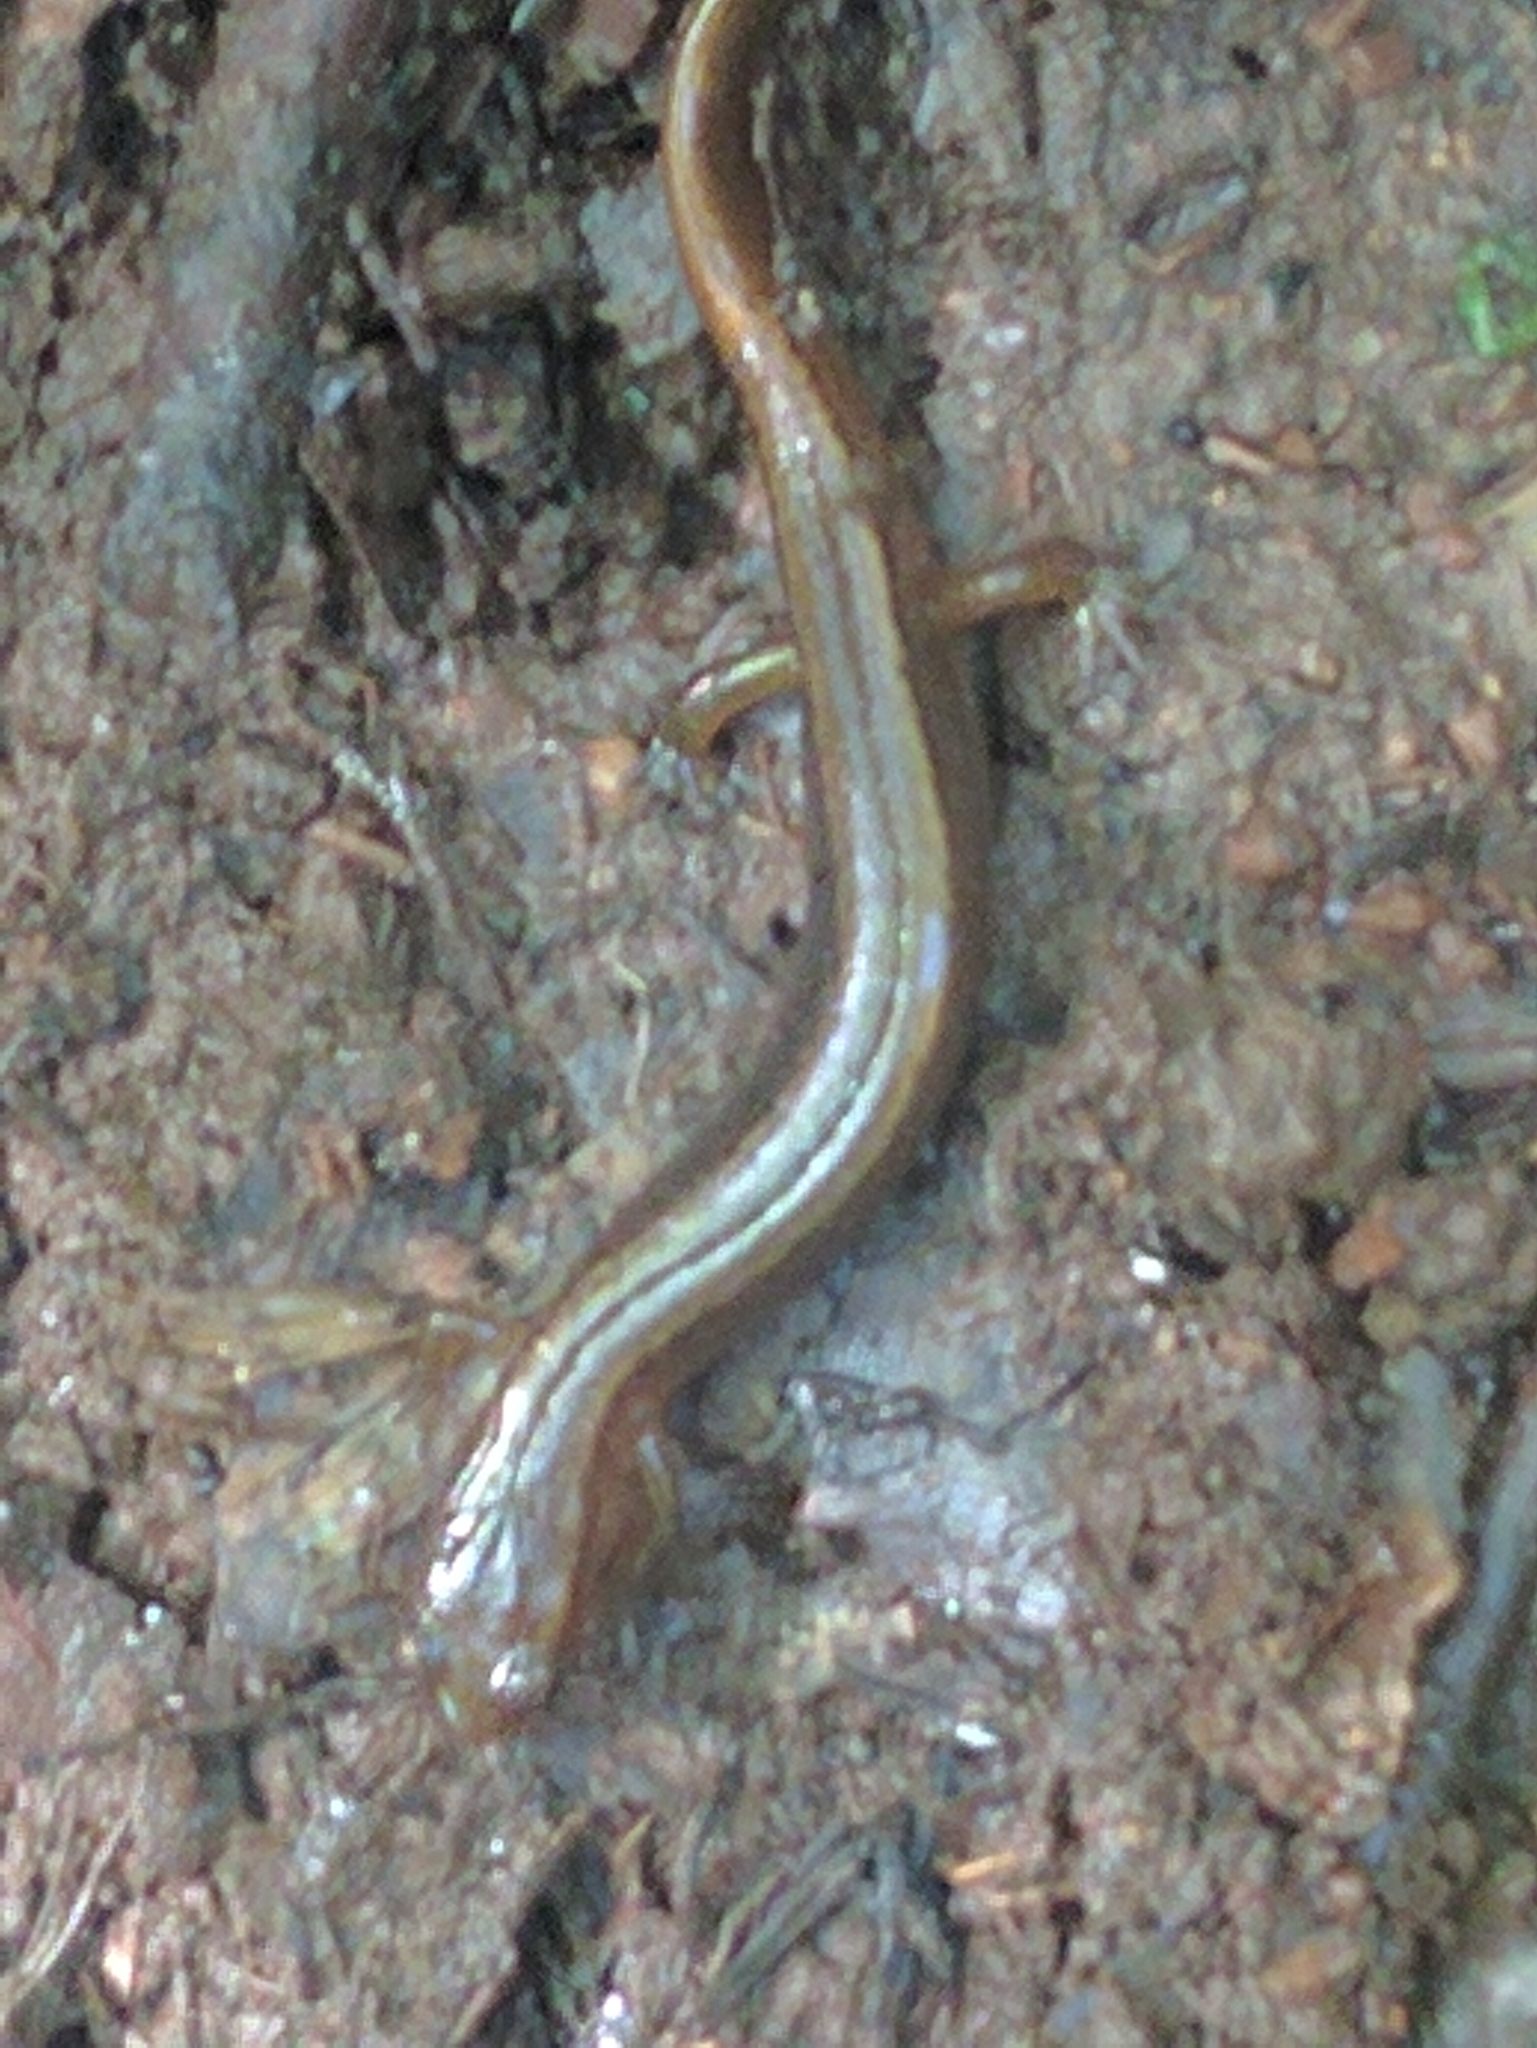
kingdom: Animalia
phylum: Chordata
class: Amphibia
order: Caudata
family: Plethodontidae
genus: Eurycea
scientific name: Eurycea bislineata
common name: Northern two-lined salamander
